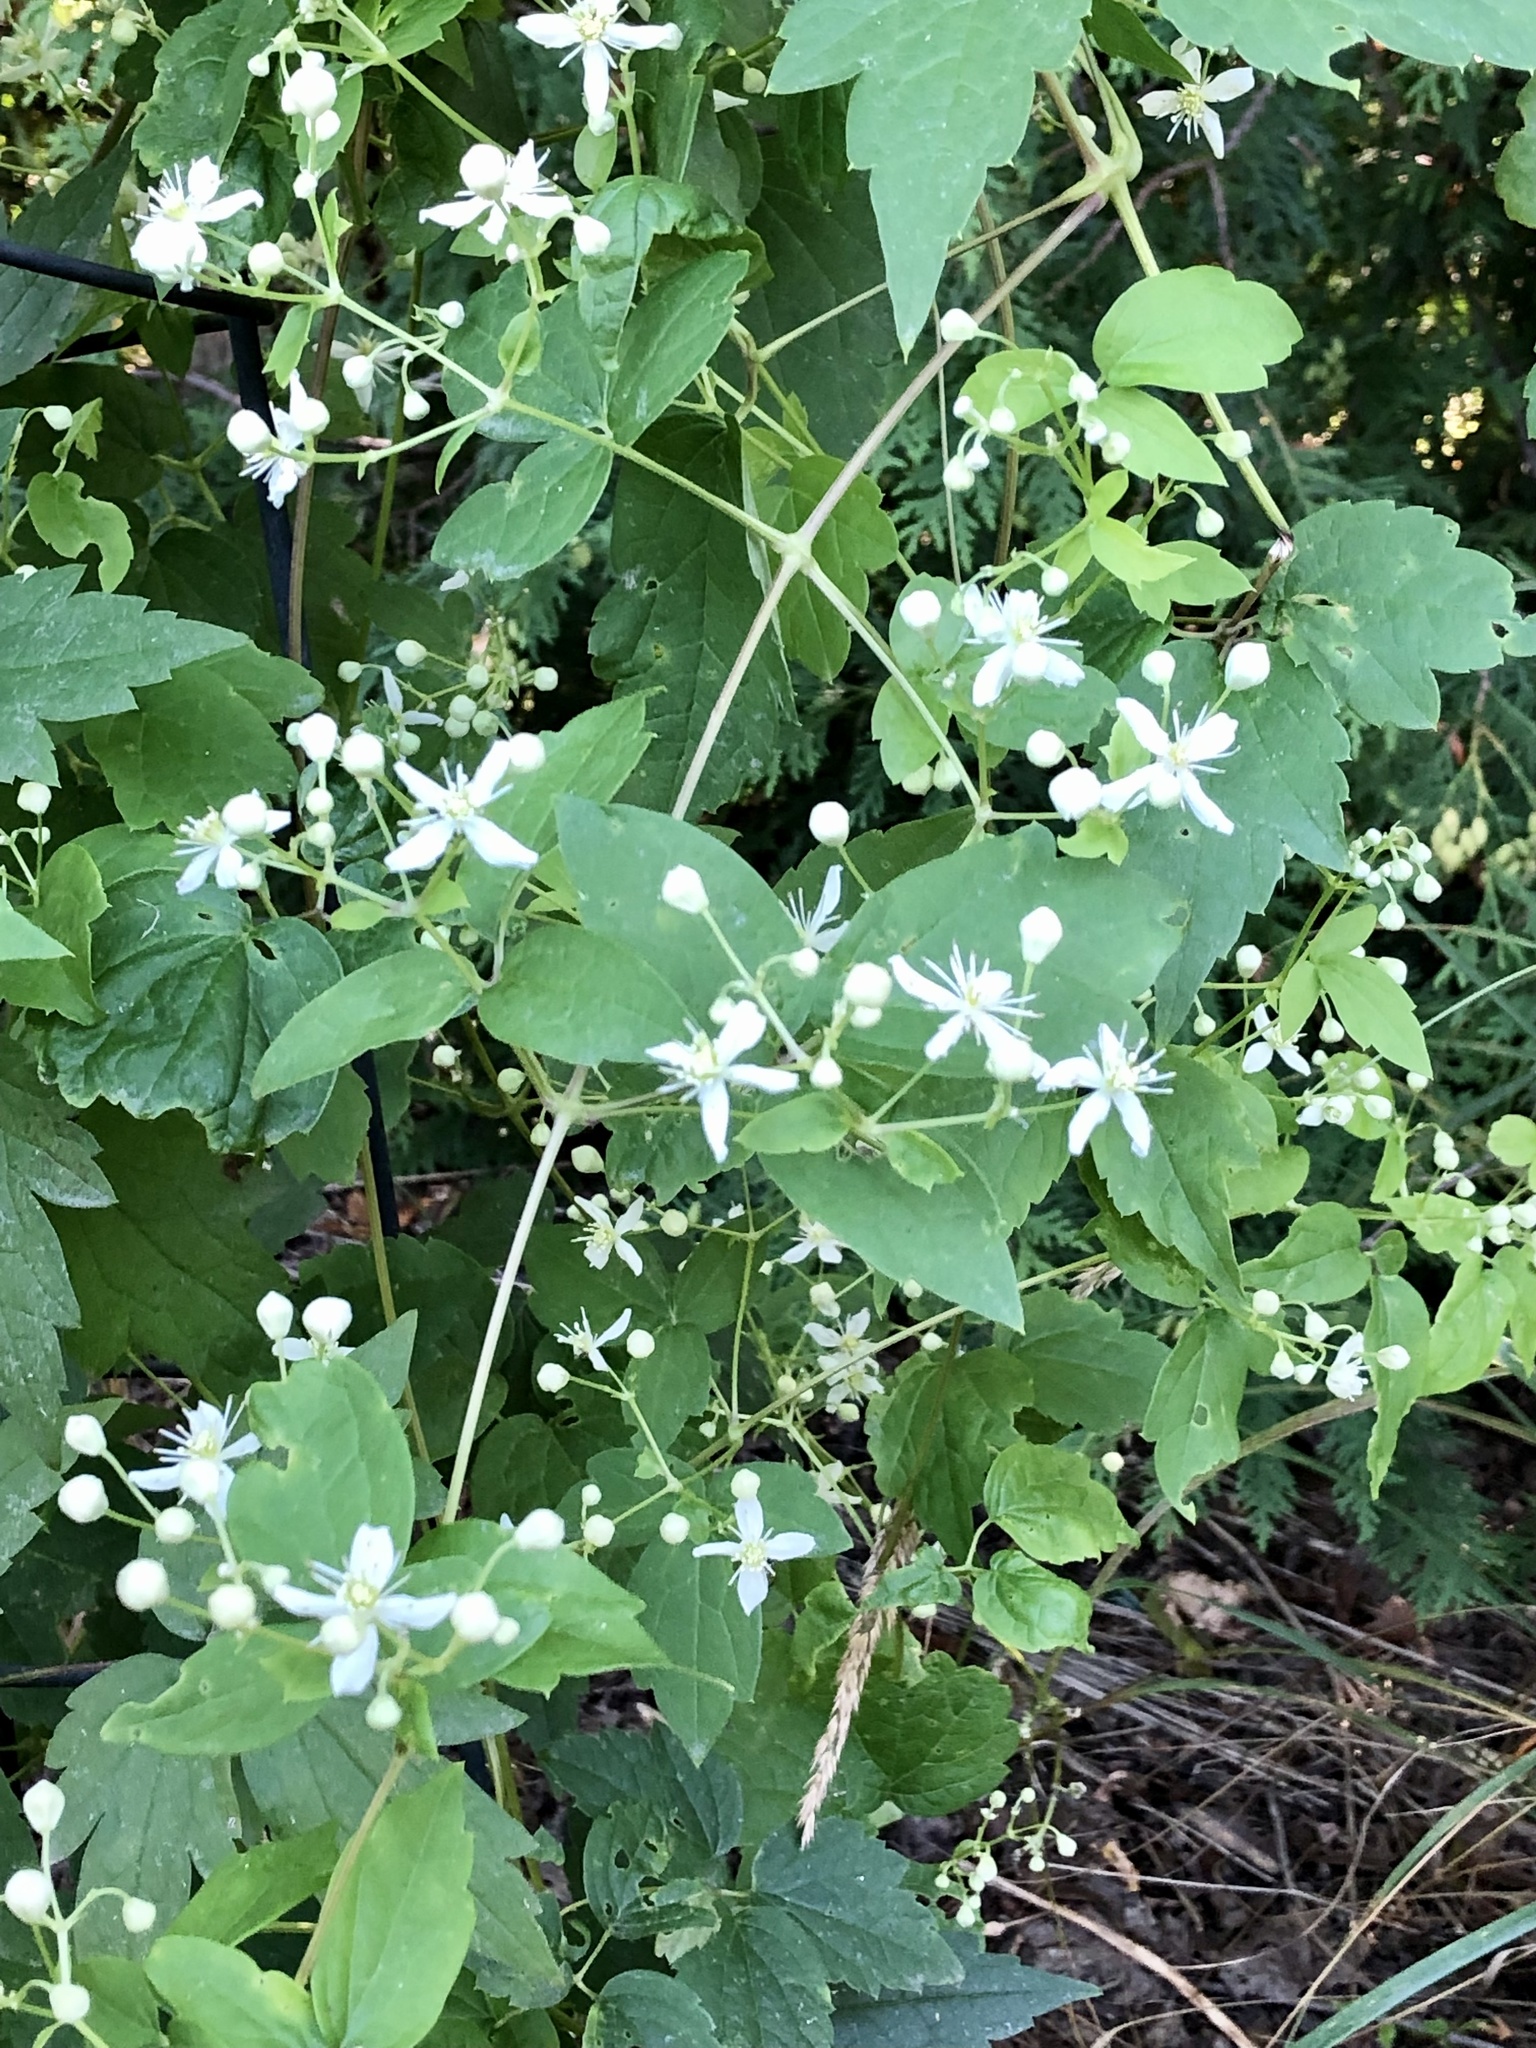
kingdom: Plantae
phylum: Tracheophyta
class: Magnoliopsida
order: Ranunculales
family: Ranunculaceae
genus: Clematis
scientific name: Clematis virginiana
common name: Virgin's-bower
